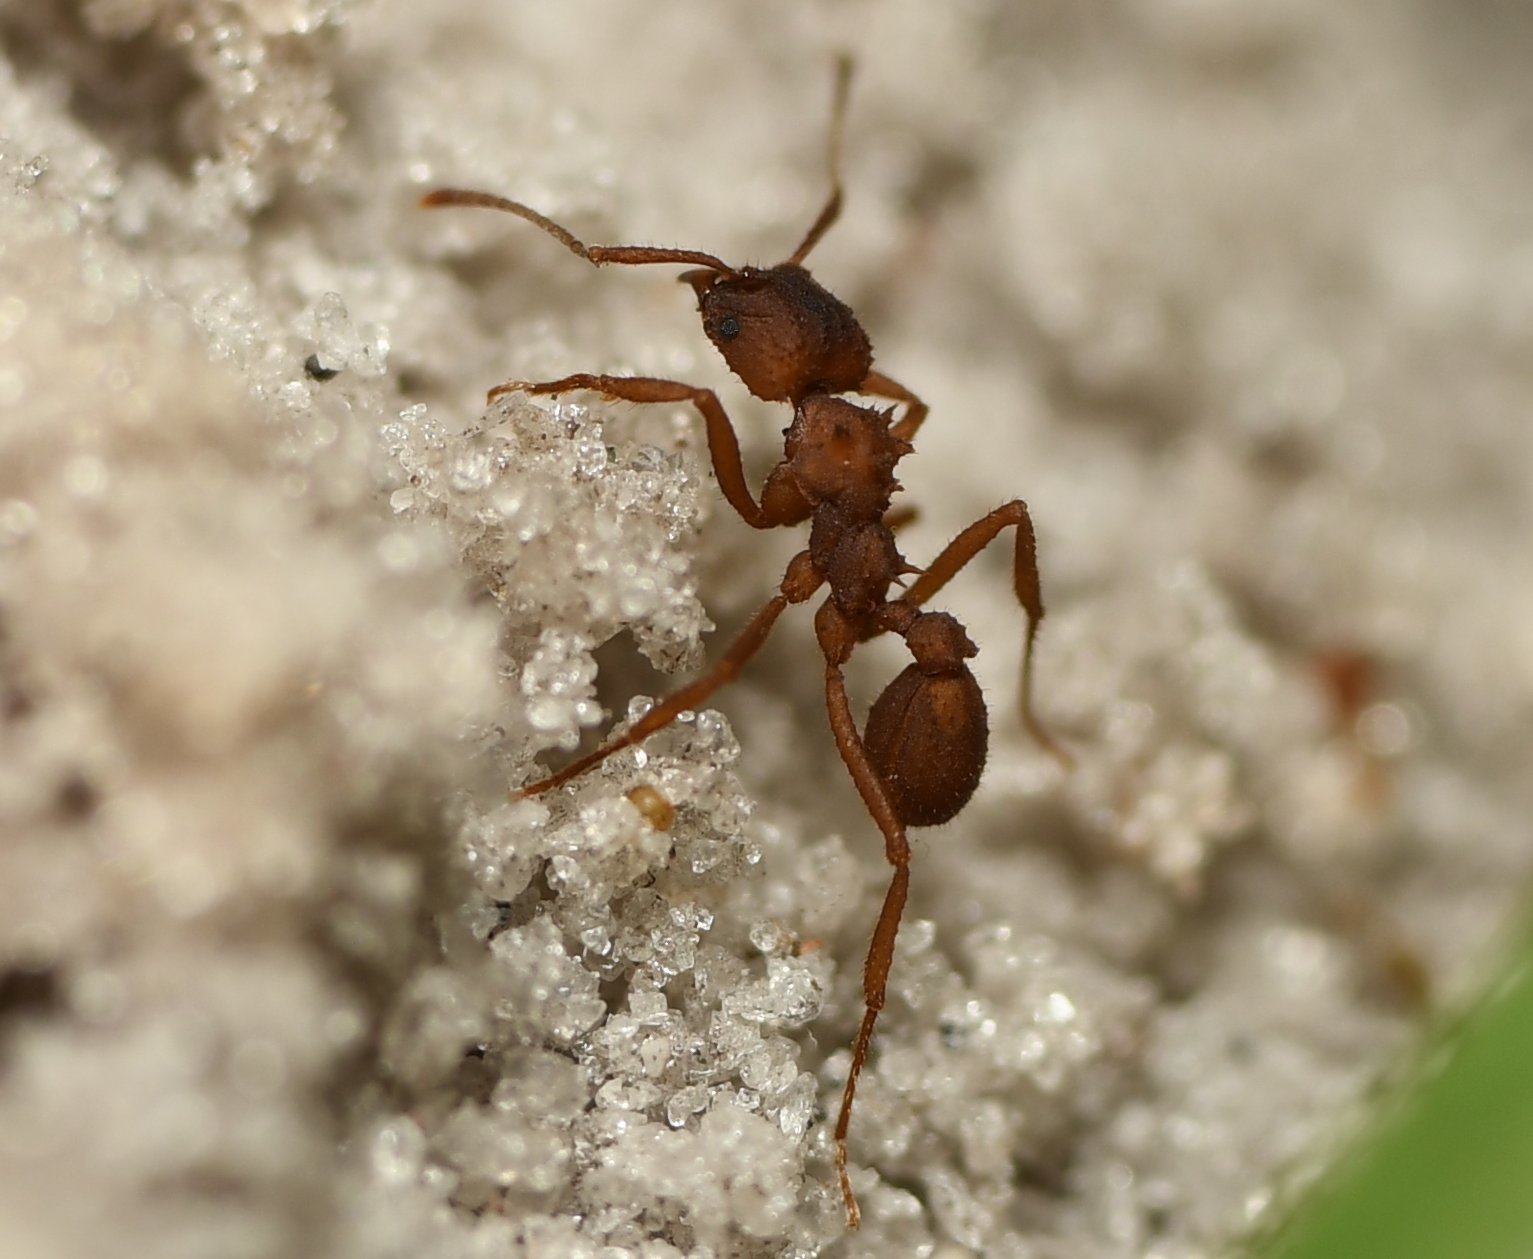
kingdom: Animalia
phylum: Arthropoda
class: Insecta
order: Hymenoptera
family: Formicidae
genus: Trachymyrmex
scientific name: Trachymyrmex septentrionalis
